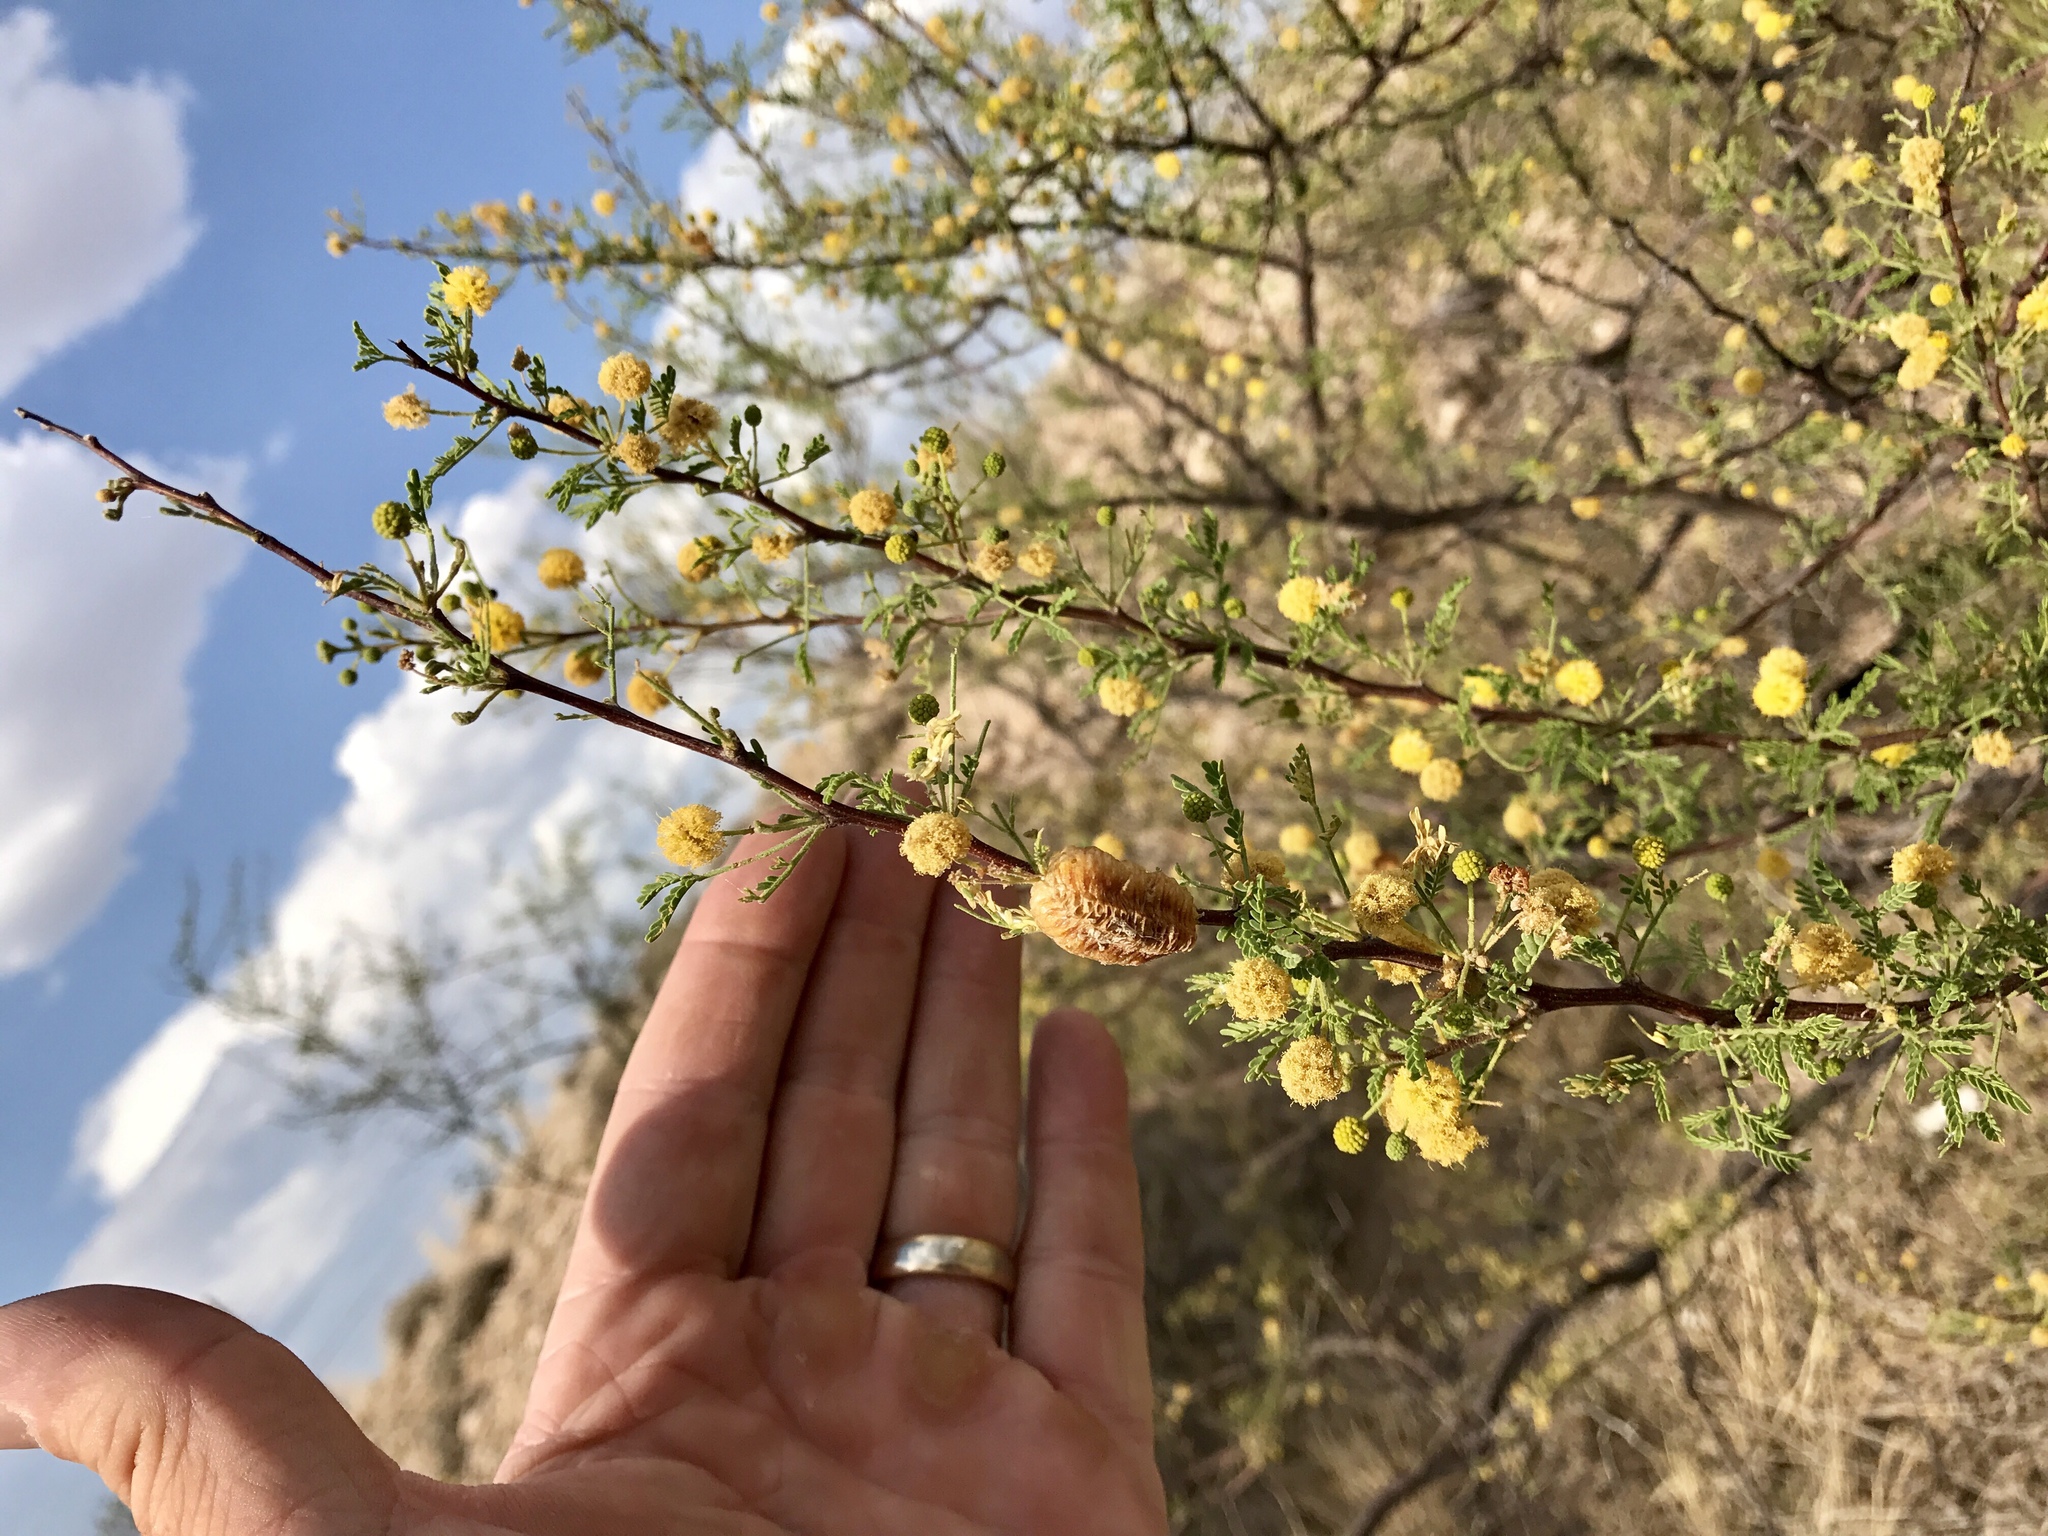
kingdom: Plantae
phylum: Tracheophyta
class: Magnoliopsida
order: Fabales
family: Fabaceae
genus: Vachellia
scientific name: Vachellia constricta
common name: Mescat acacia
